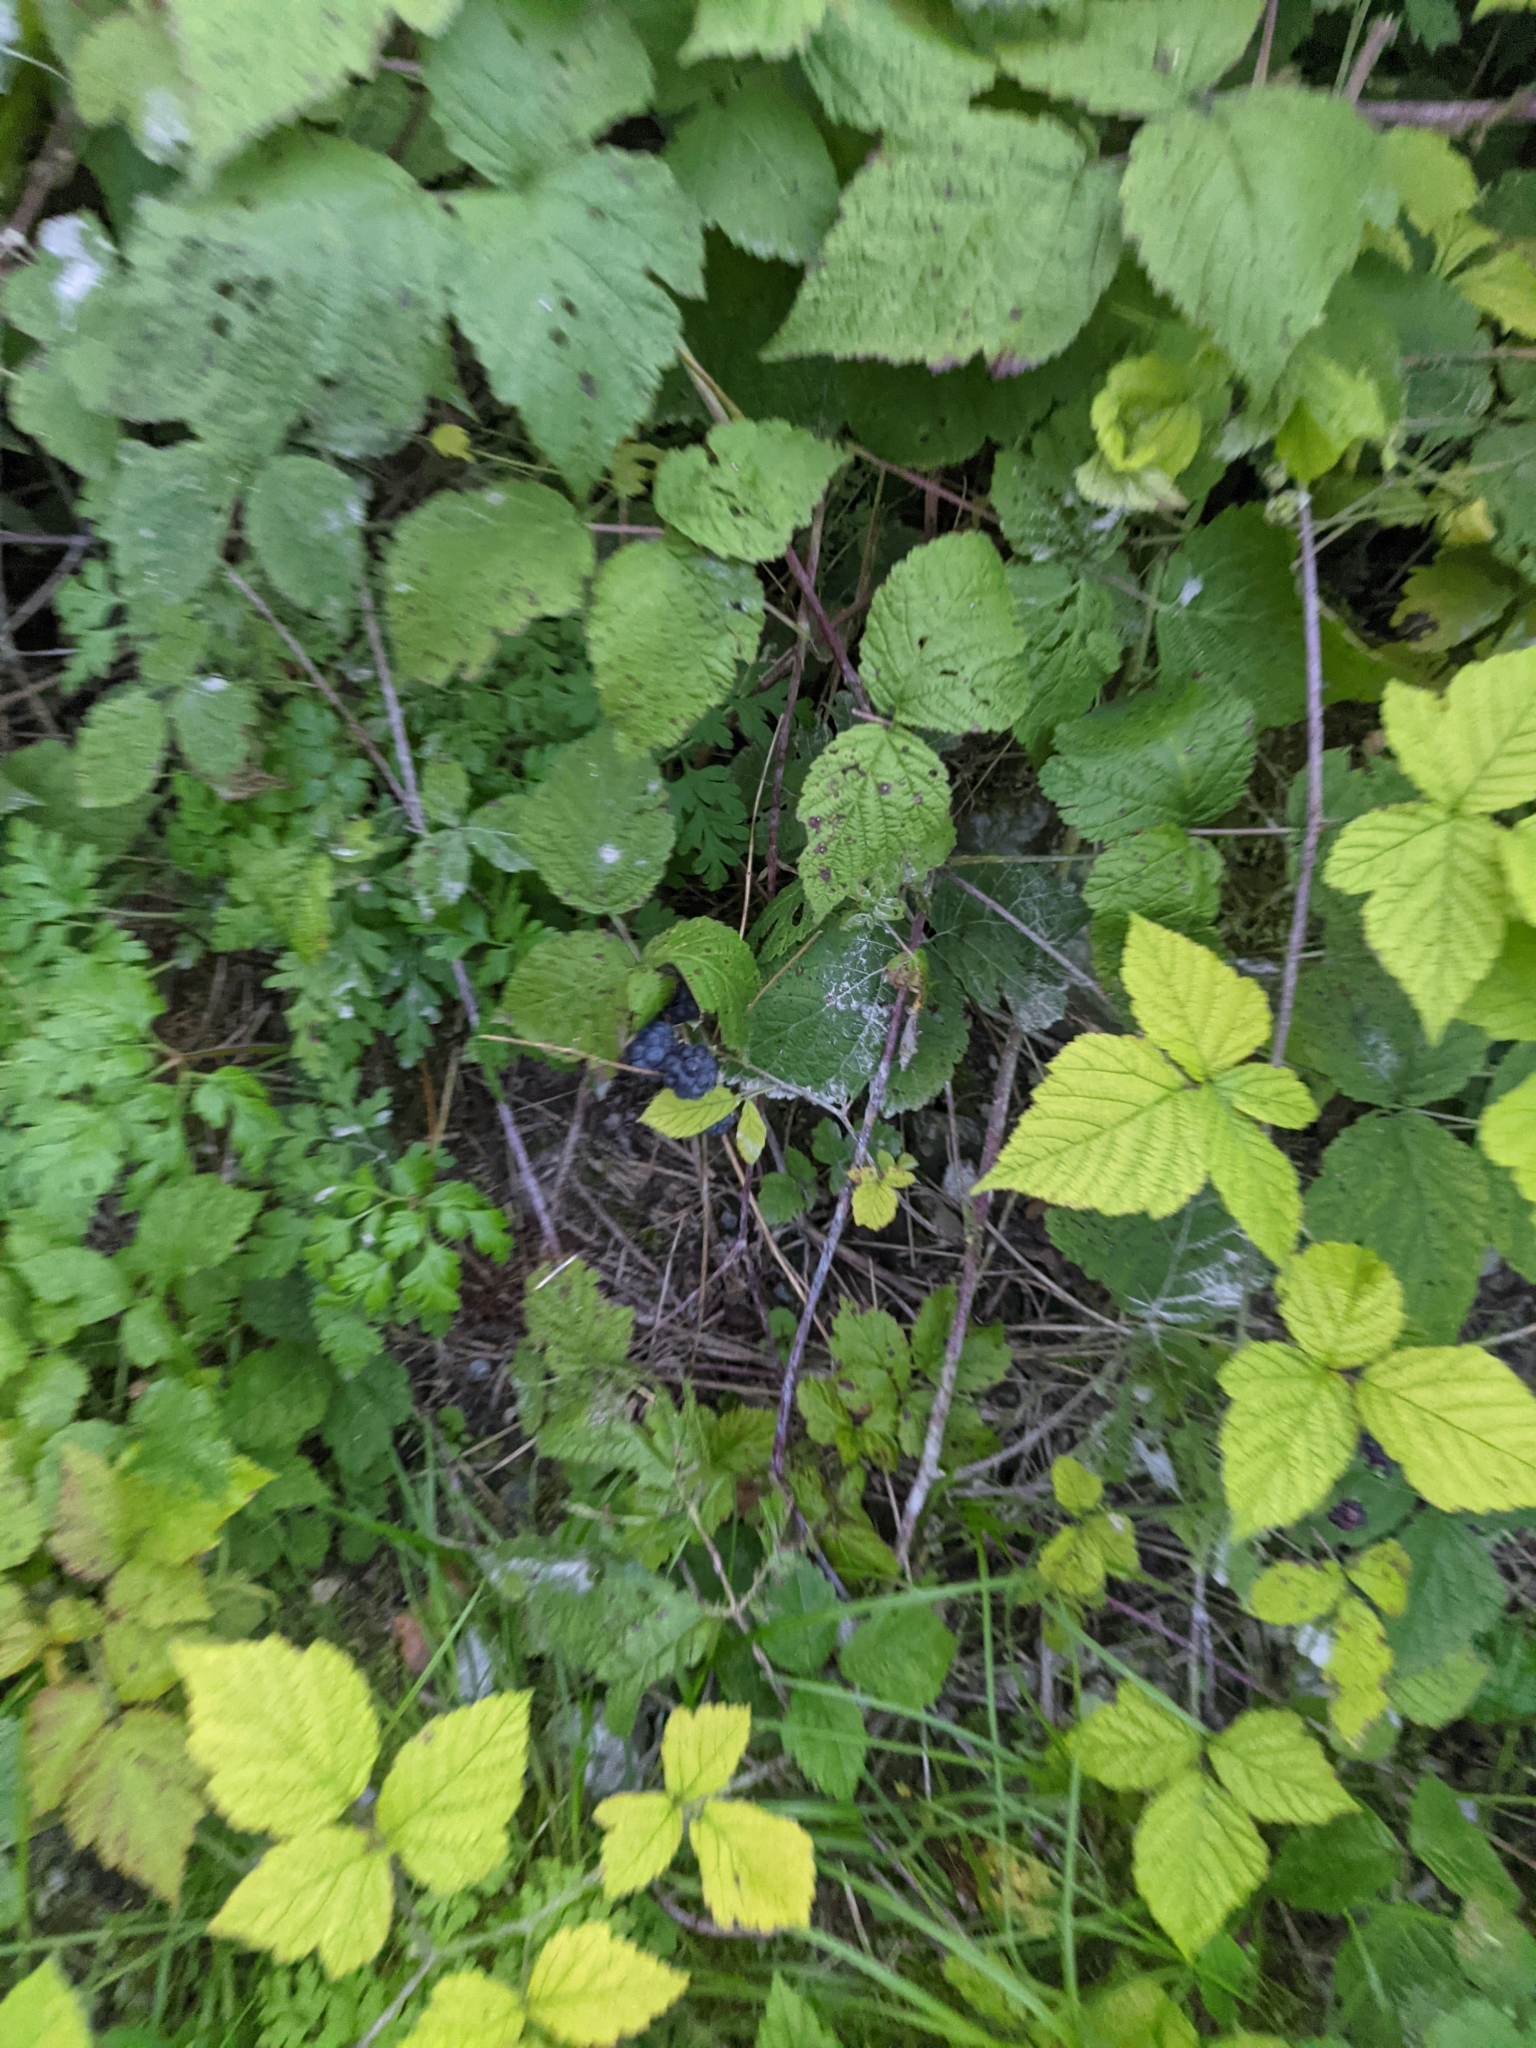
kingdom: Plantae
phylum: Tracheophyta
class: Magnoliopsida
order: Rosales
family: Rosaceae
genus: Rubus
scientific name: Rubus caesius
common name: Dewberry
